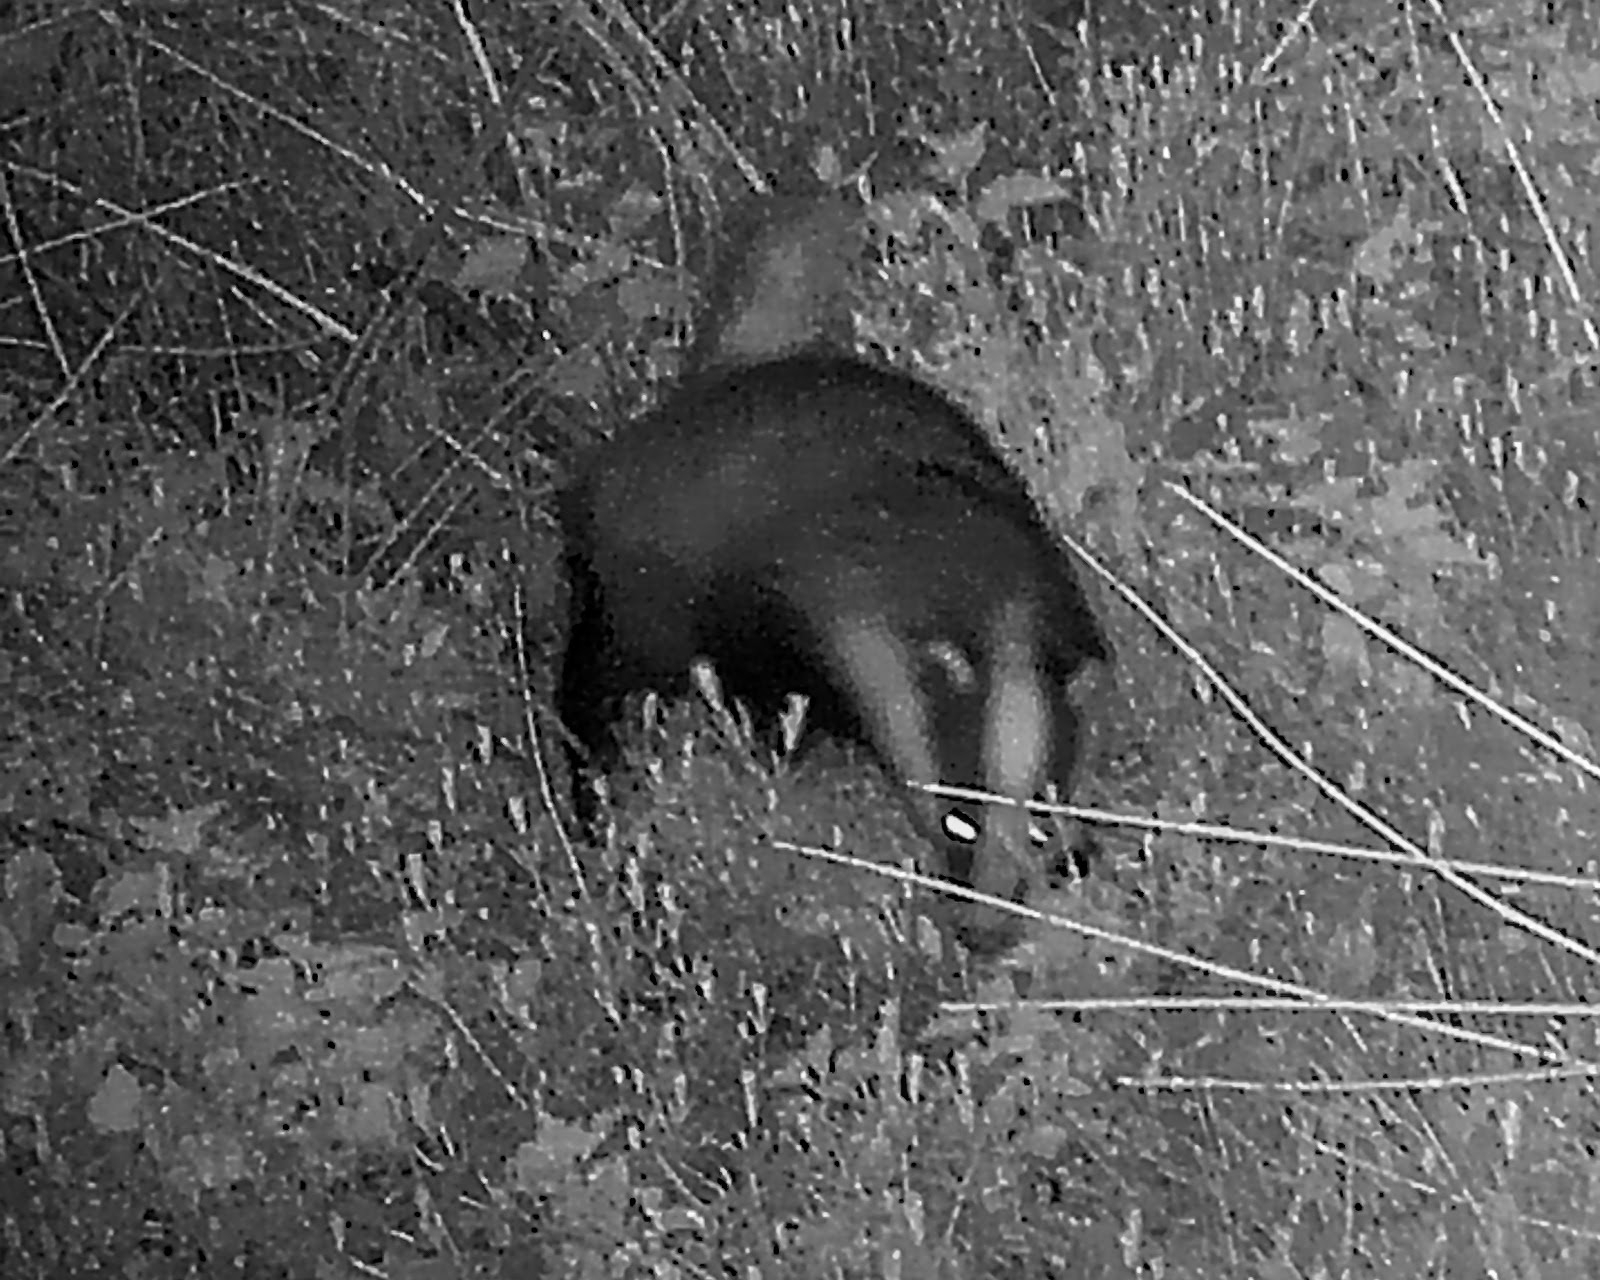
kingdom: Animalia
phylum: Chordata
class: Mammalia
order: Carnivora
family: Mustelidae
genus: Meles
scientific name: Meles meles
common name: Eurasian badger
